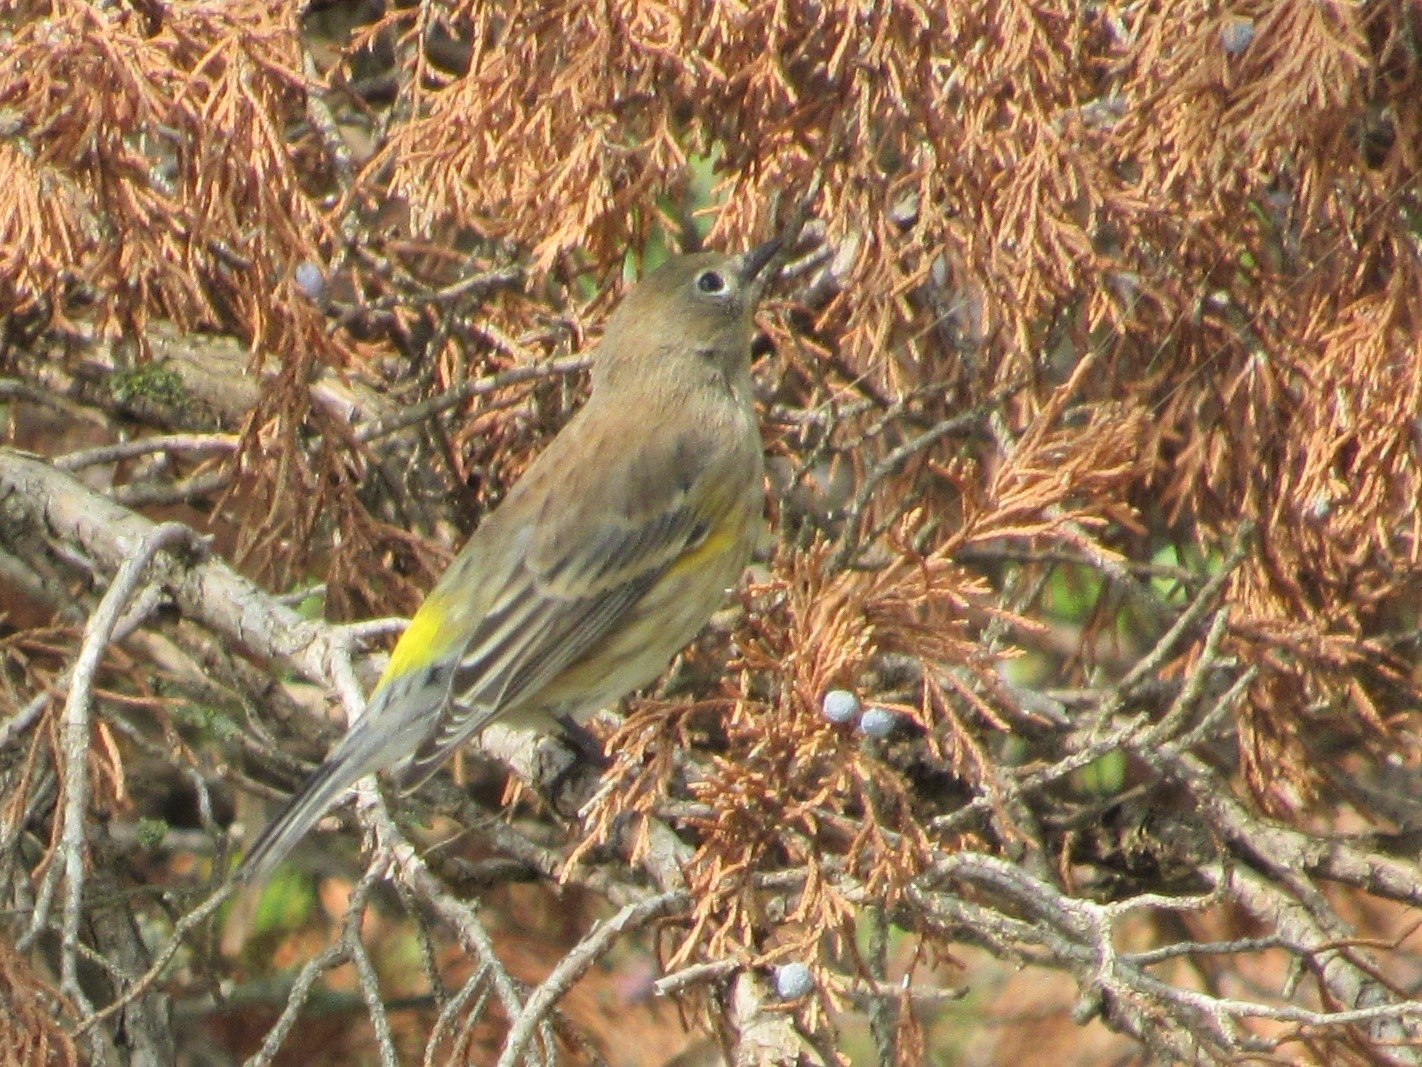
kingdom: Animalia
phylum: Chordata
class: Aves
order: Passeriformes
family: Parulidae
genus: Setophaga
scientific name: Setophaga coronata
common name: Myrtle warbler
